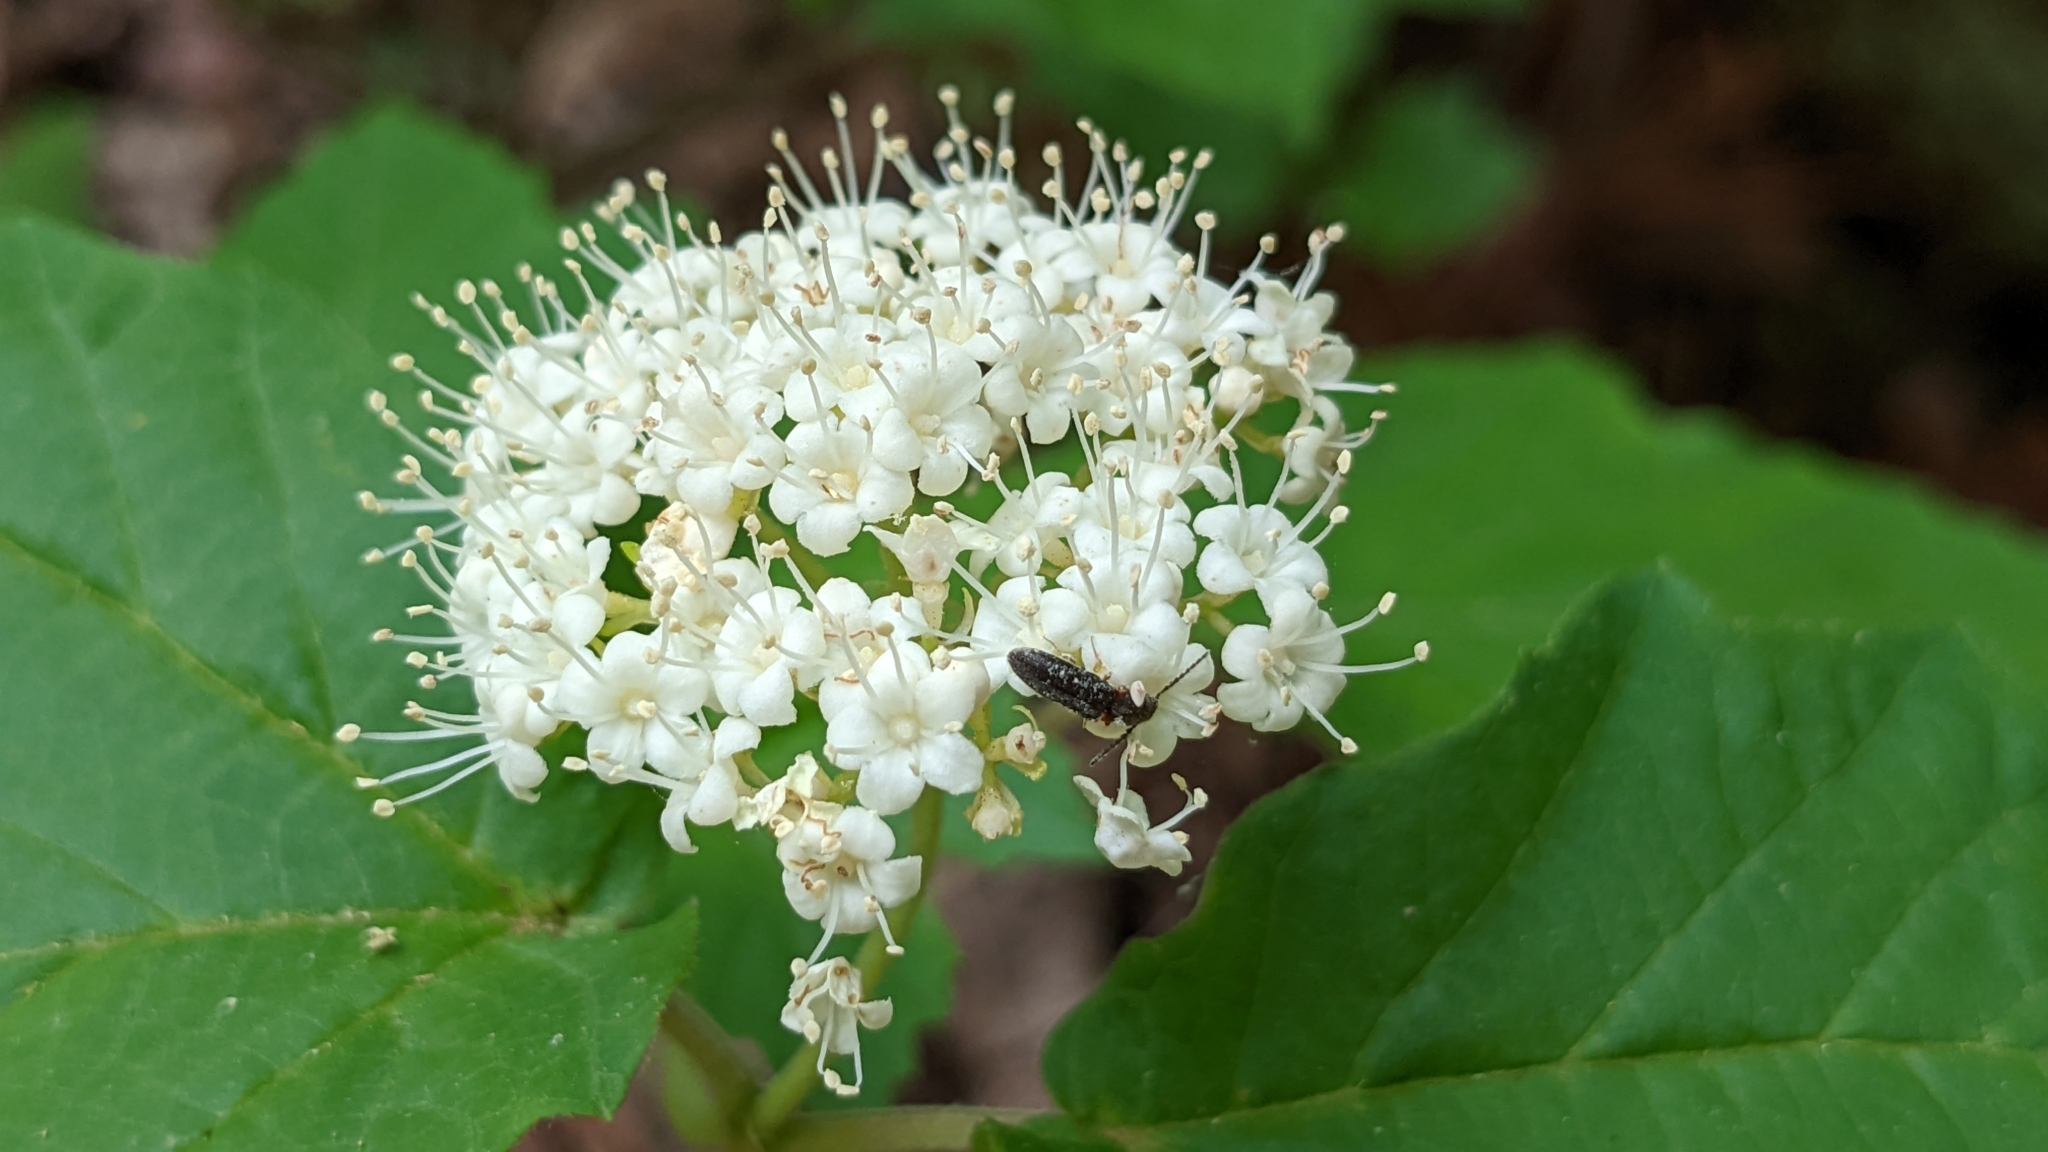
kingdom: Plantae
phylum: Tracheophyta
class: Magnoliopsida
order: Dipsacales
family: Viburnaceae
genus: Viburnum
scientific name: Viburnum acerifolium
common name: Dockmackie
